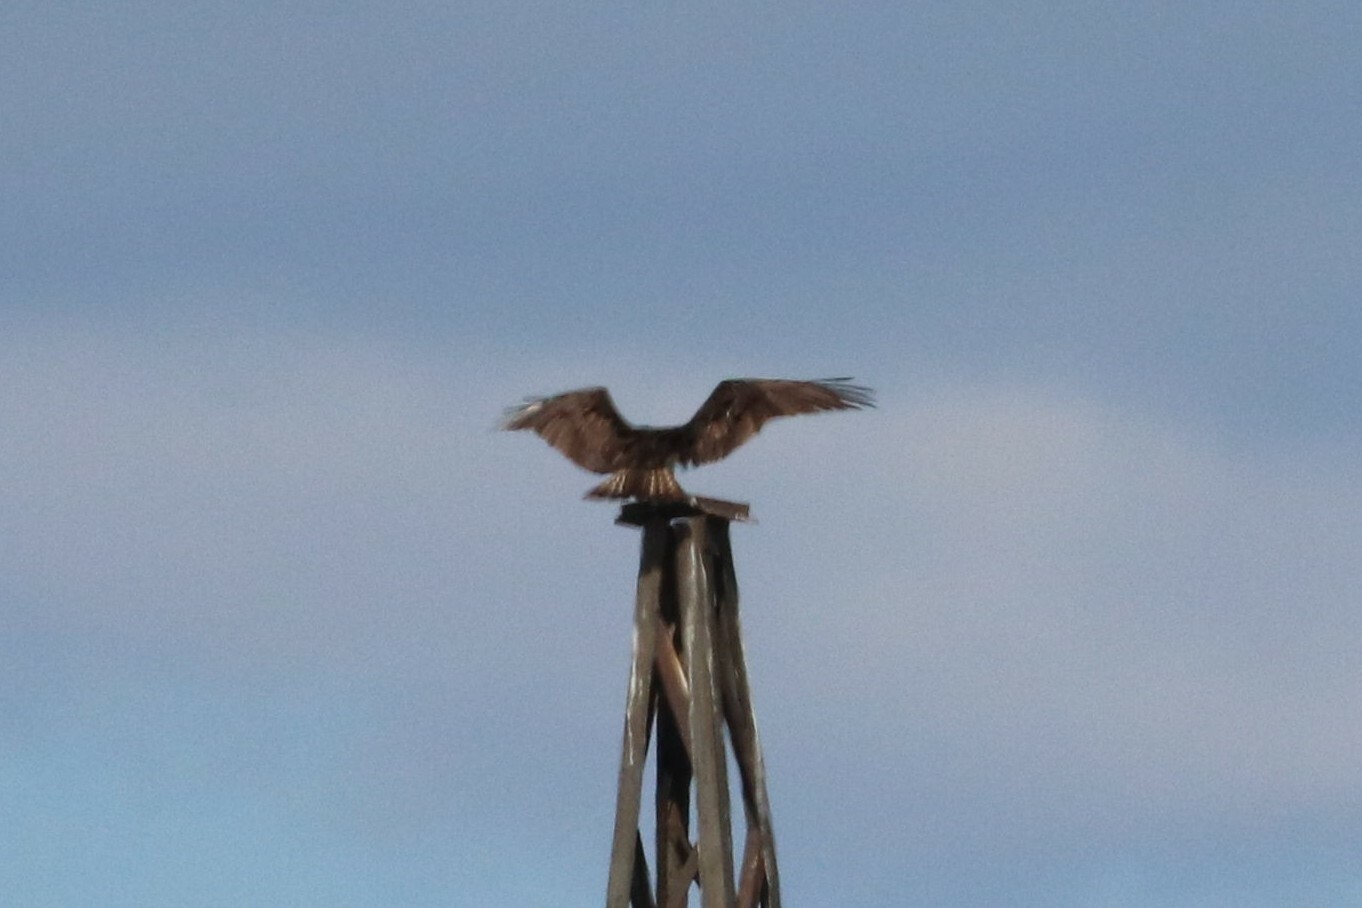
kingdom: Animalia
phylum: Chordata
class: Aves
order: Accipitriformes
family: Pandionidae
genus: Pandion
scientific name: Pandion haliaetus
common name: Osprey
